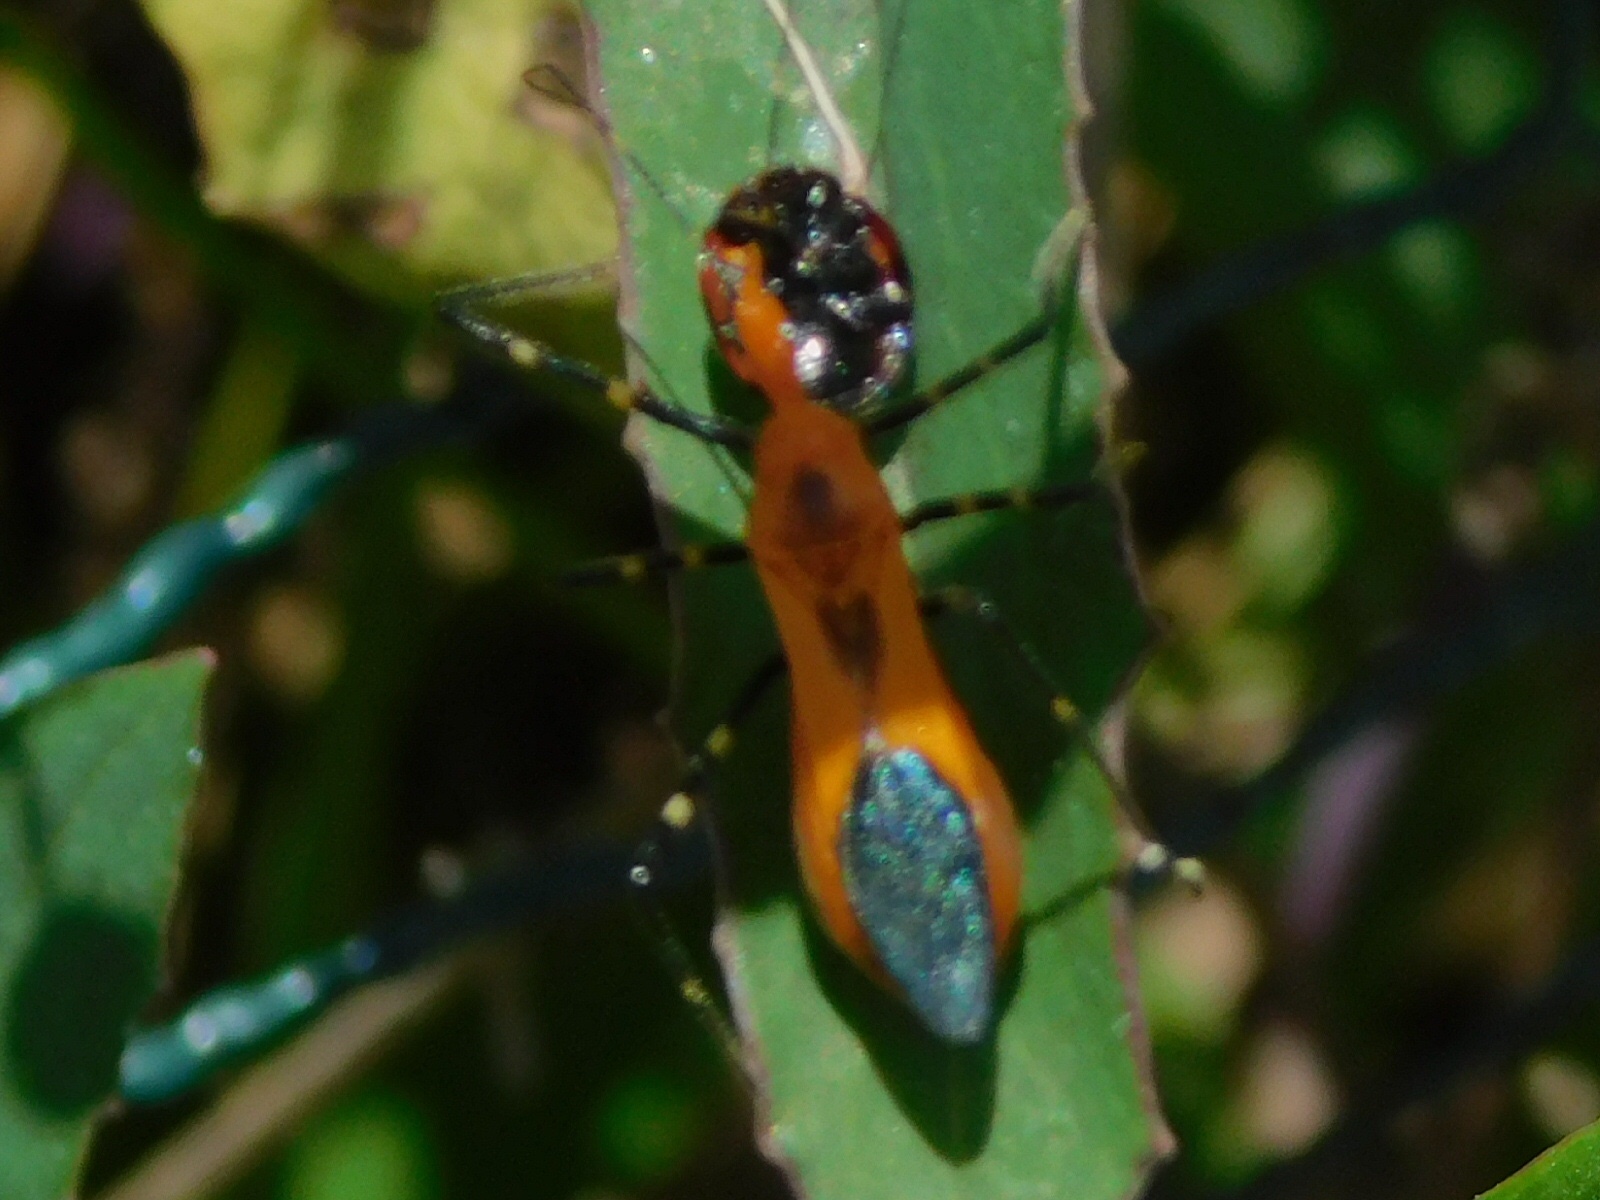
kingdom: Animalia
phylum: Arthropoda
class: Insecta
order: Hemiptera
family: Reduviidae
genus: Zelus
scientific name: Zelus longipes
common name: Milkweed assassin bug
